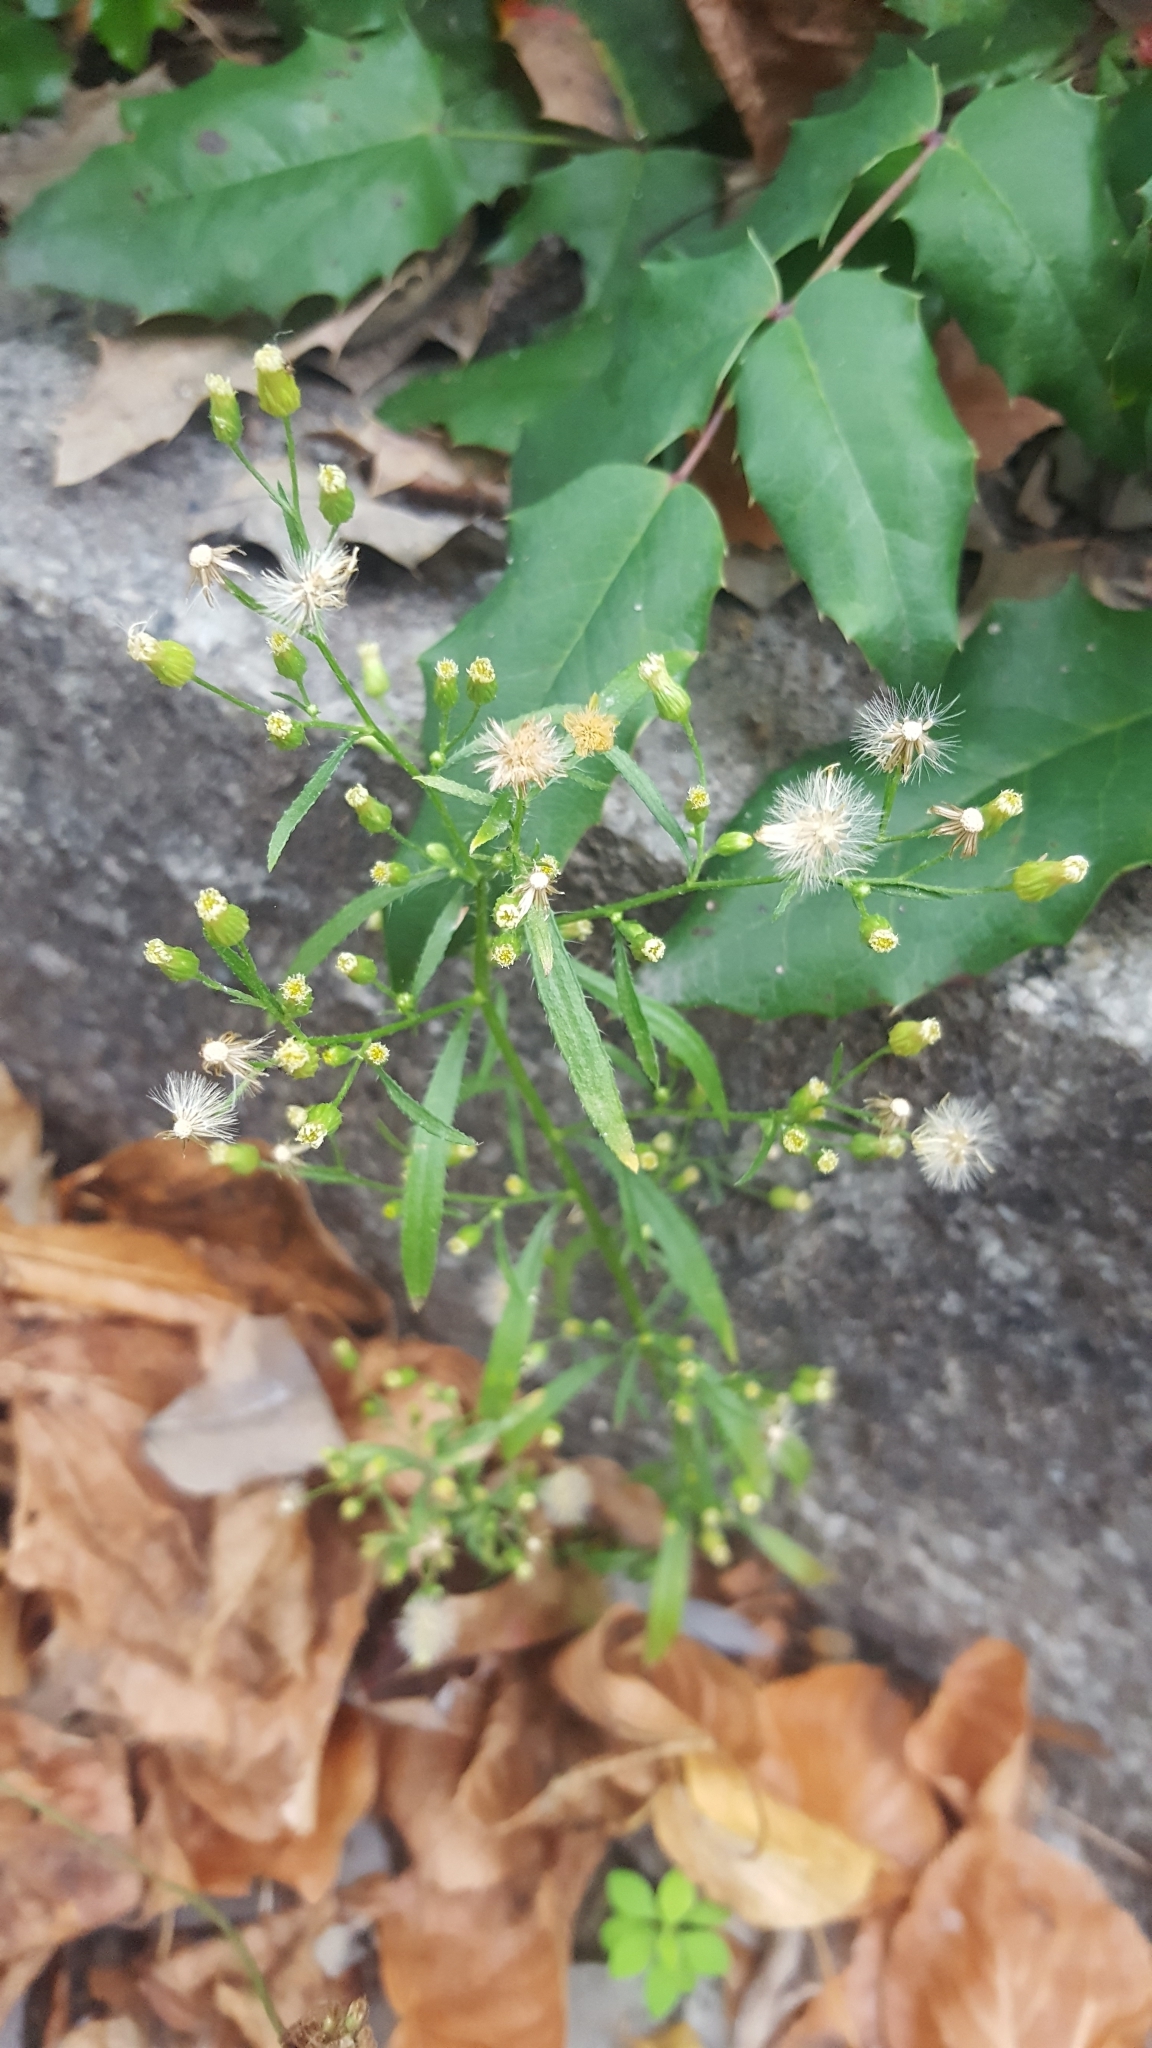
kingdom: Plantae
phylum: Tracheophyta
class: Magnoliopsida
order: Asterales
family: Asteraceae
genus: Erigeron
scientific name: Erigeron canadensis
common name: Canadian fleabane
